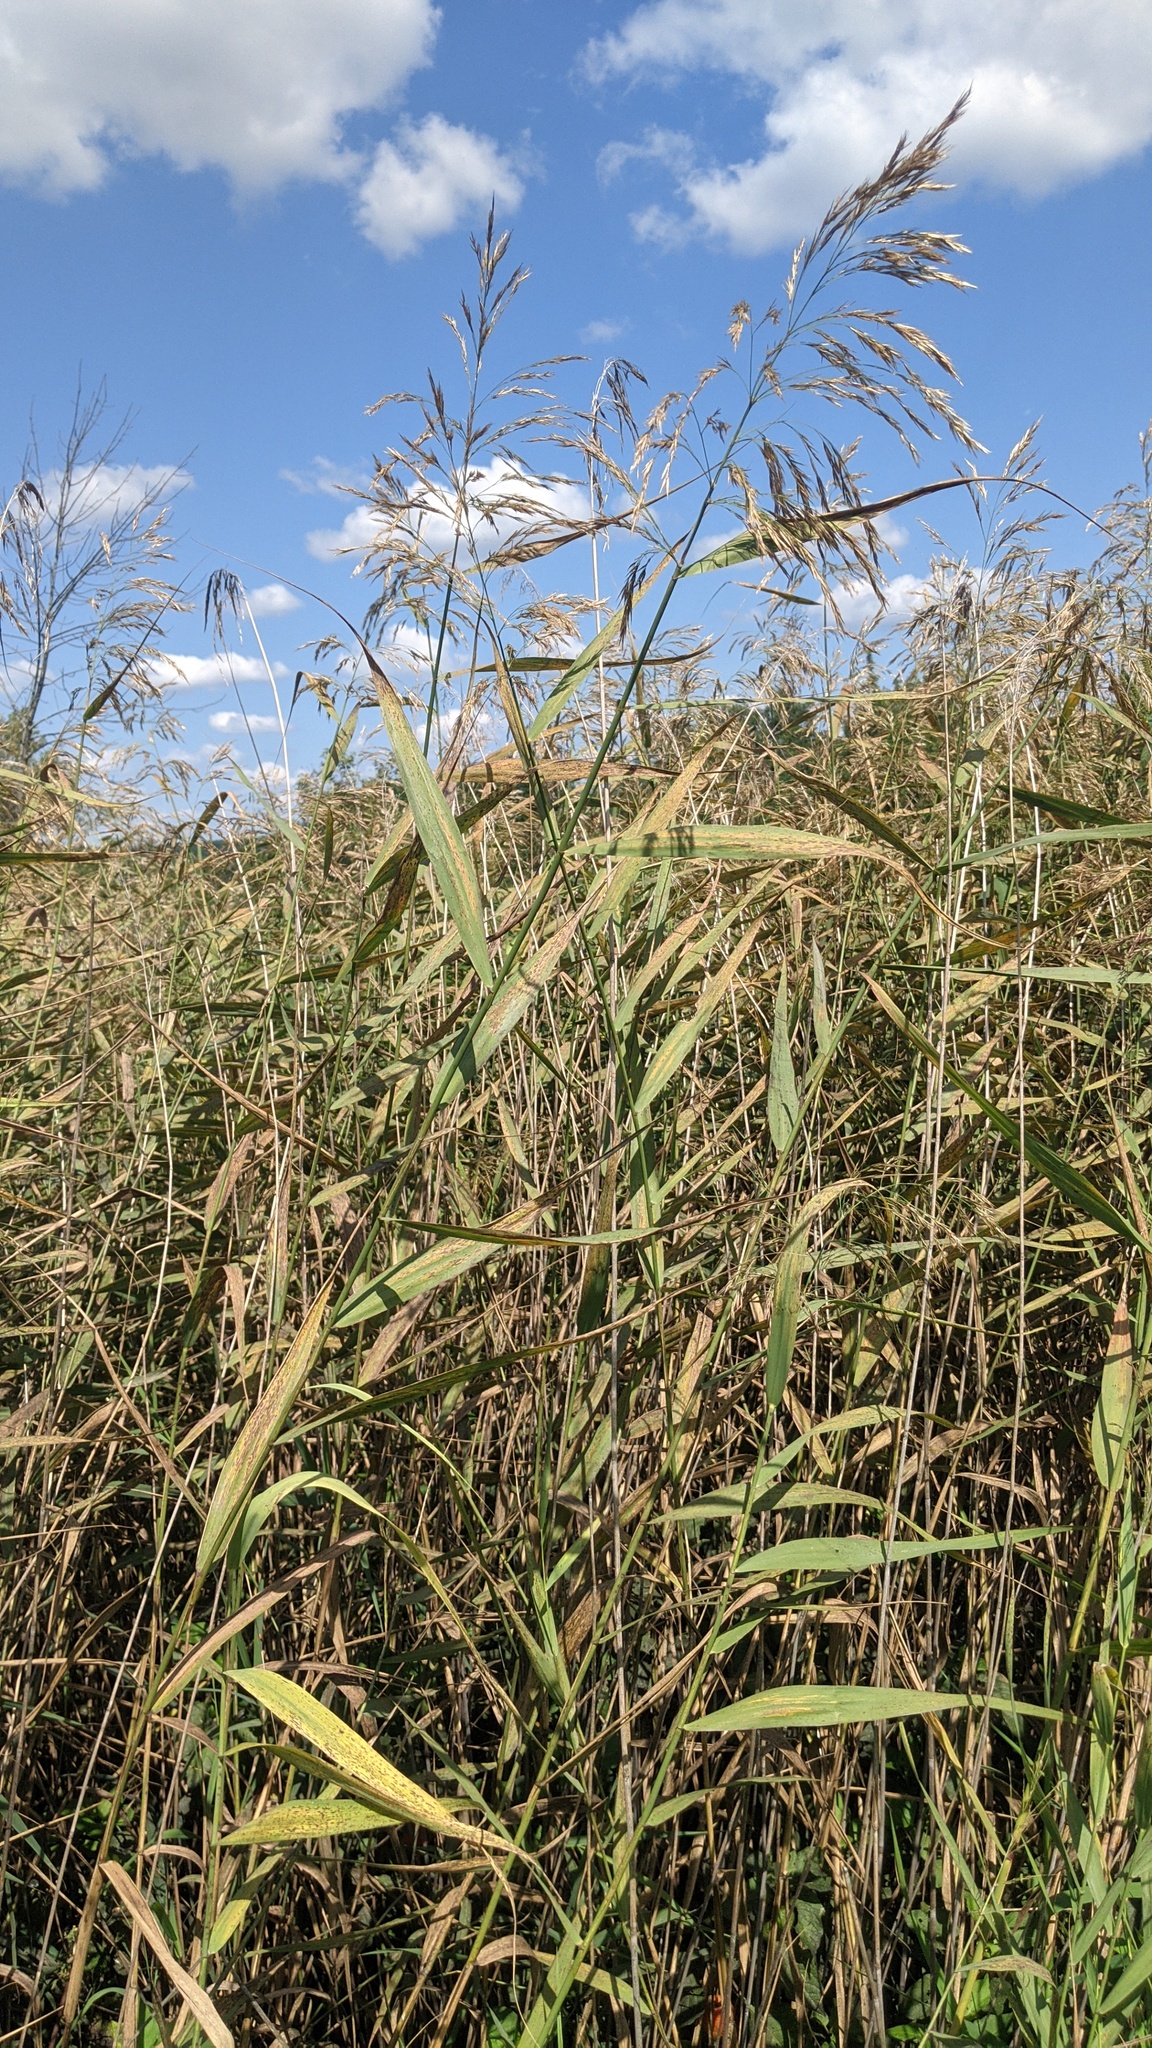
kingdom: Plantae
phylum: Tracheophyta
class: Liliopsida
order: Poales
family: Poaceae
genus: Phragmites
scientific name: Phragmites australis
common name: Common reed
